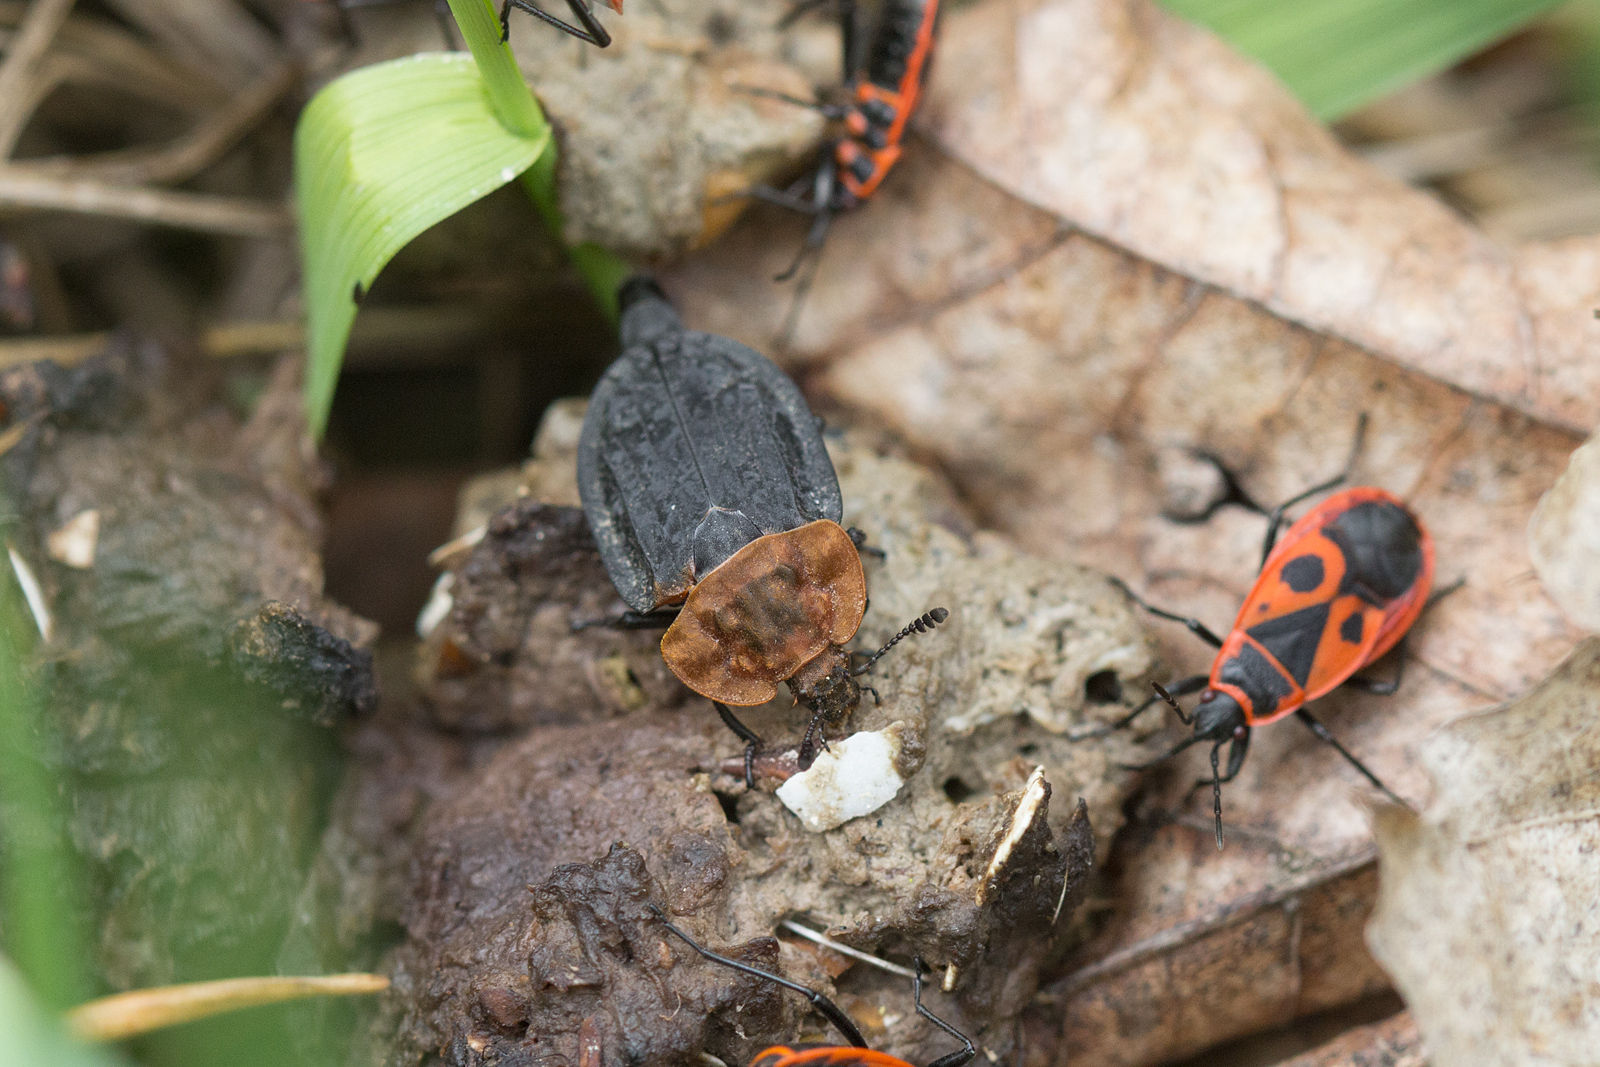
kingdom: Animalia
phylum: Arthropoda
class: Insecta
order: Coleoptera
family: Staphylinidae
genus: Oiceoptoma
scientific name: Oiceoptoma thoracicum
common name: Red-breasted carrion beetle
